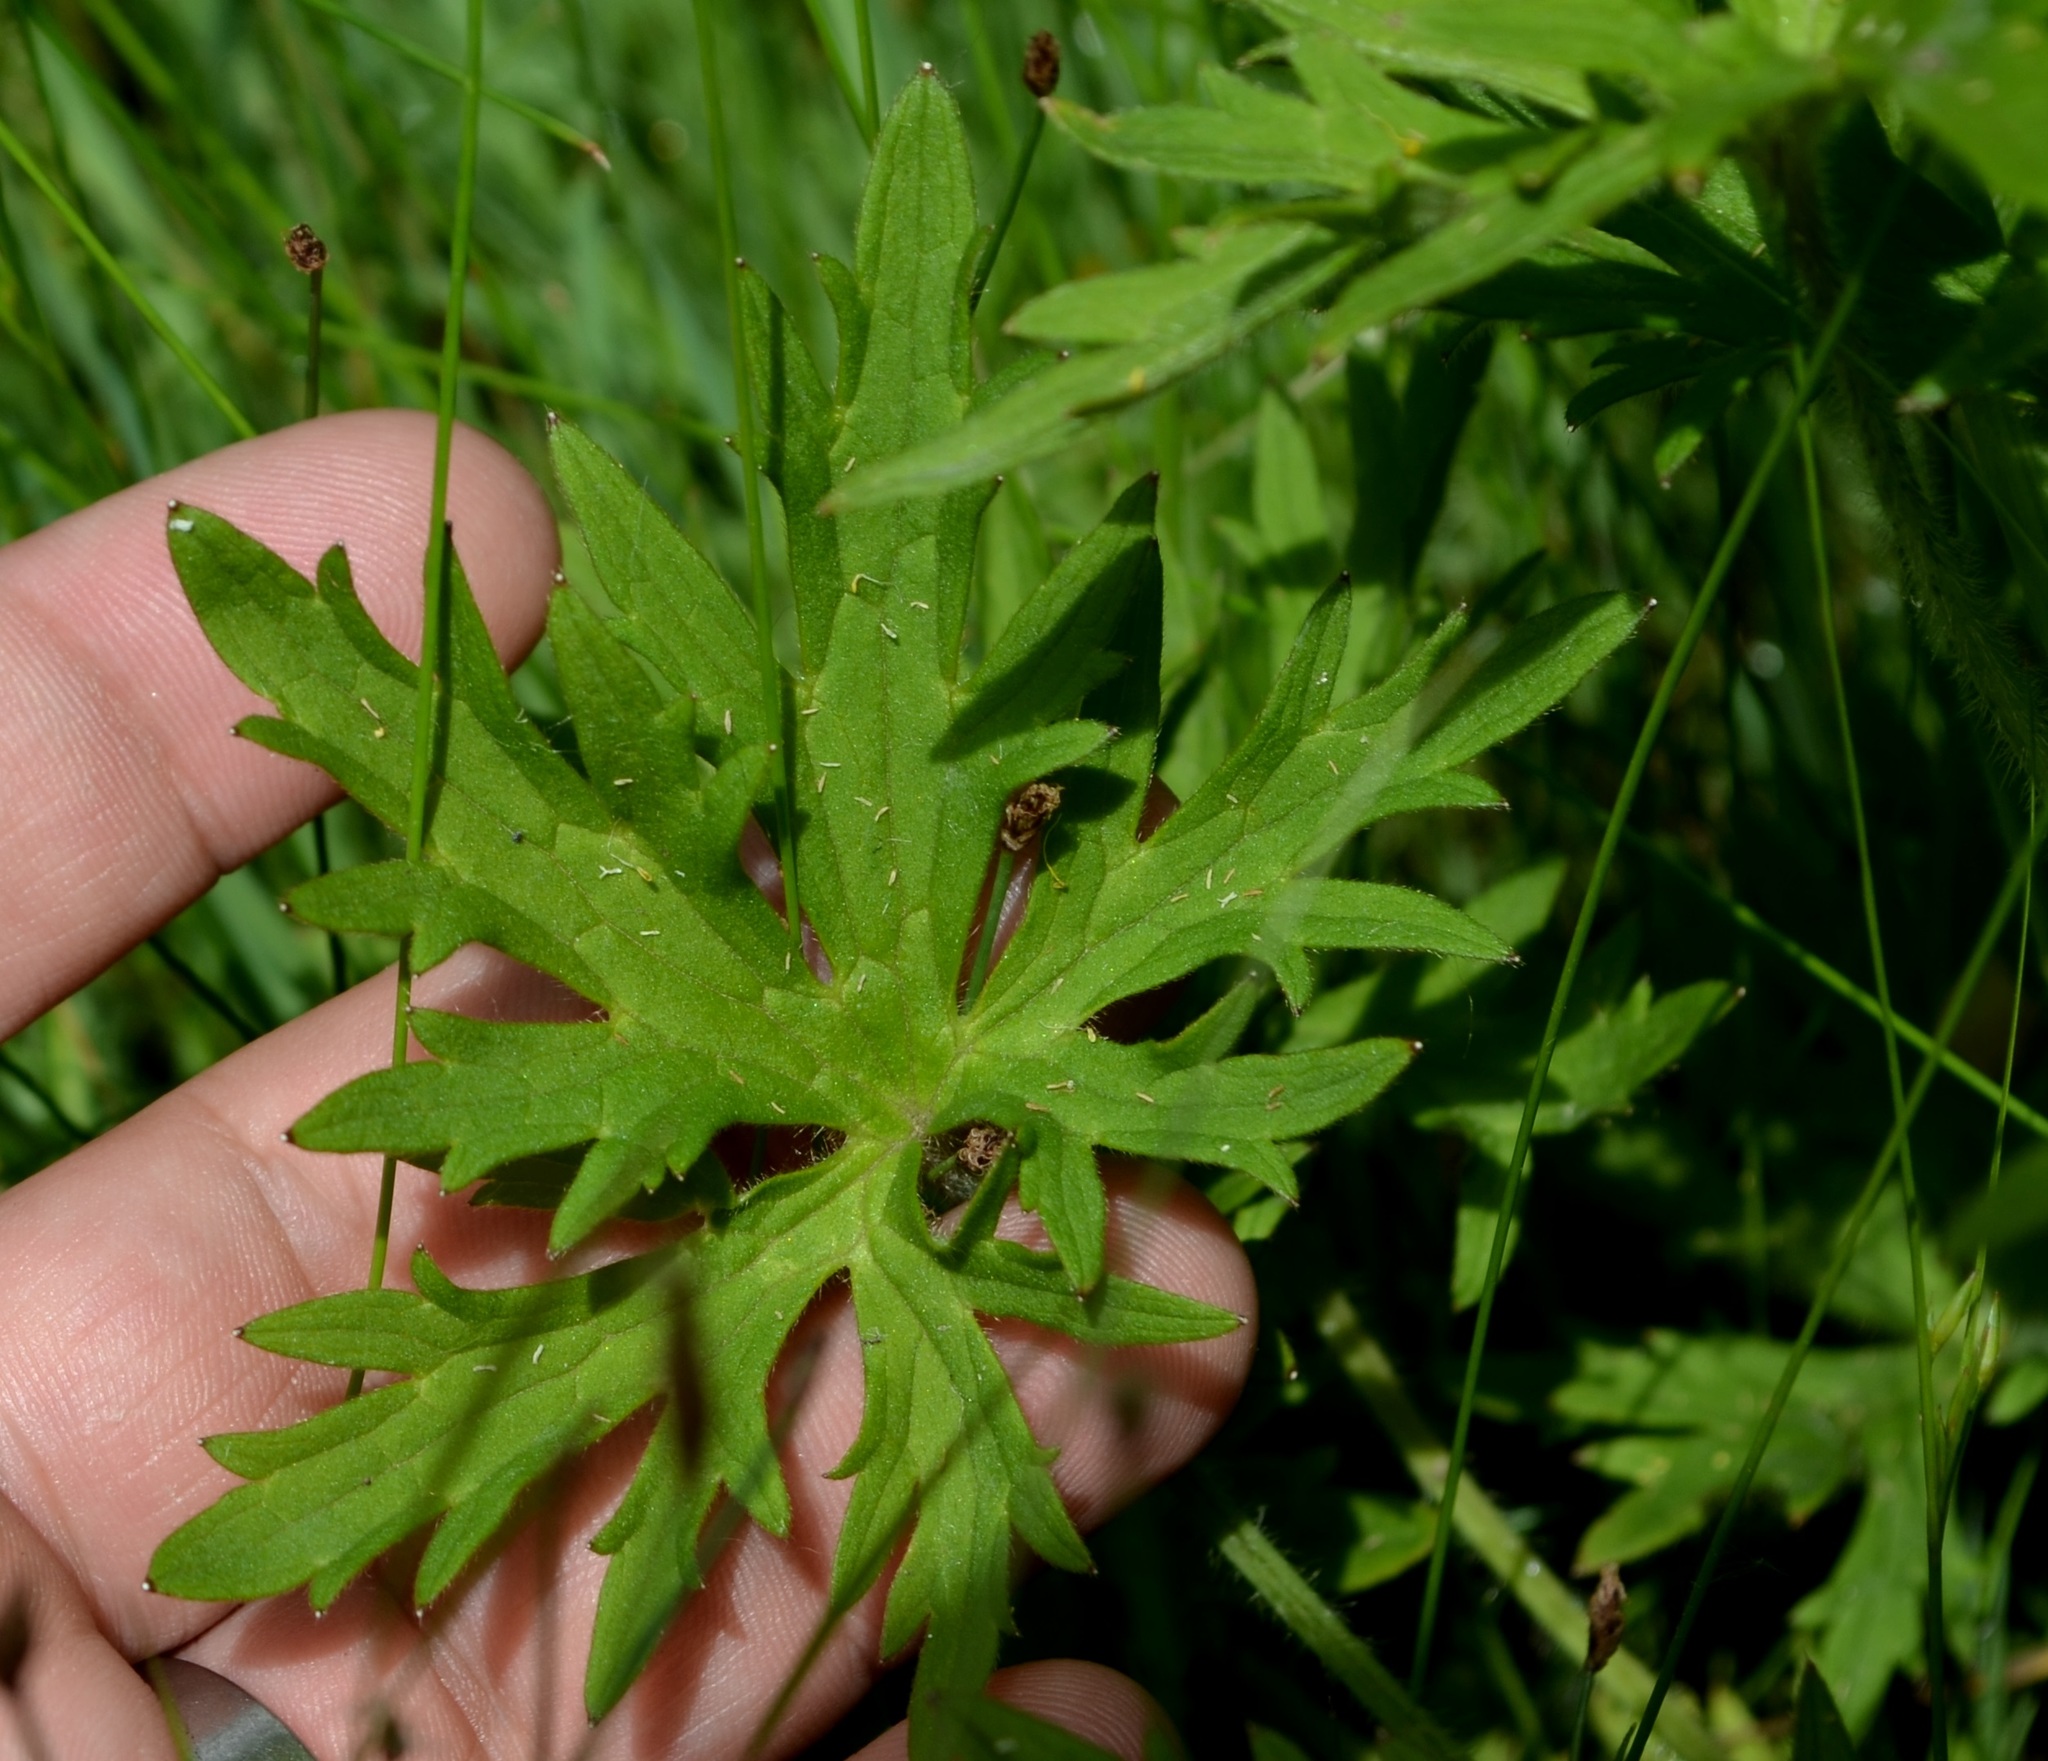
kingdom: Plantae
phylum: Tracheophyta
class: Magnoliopsida
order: Ranunculales
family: Ranunculaceae
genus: Ranunculus
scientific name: Ranunculus acris
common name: Meadow buttercup
